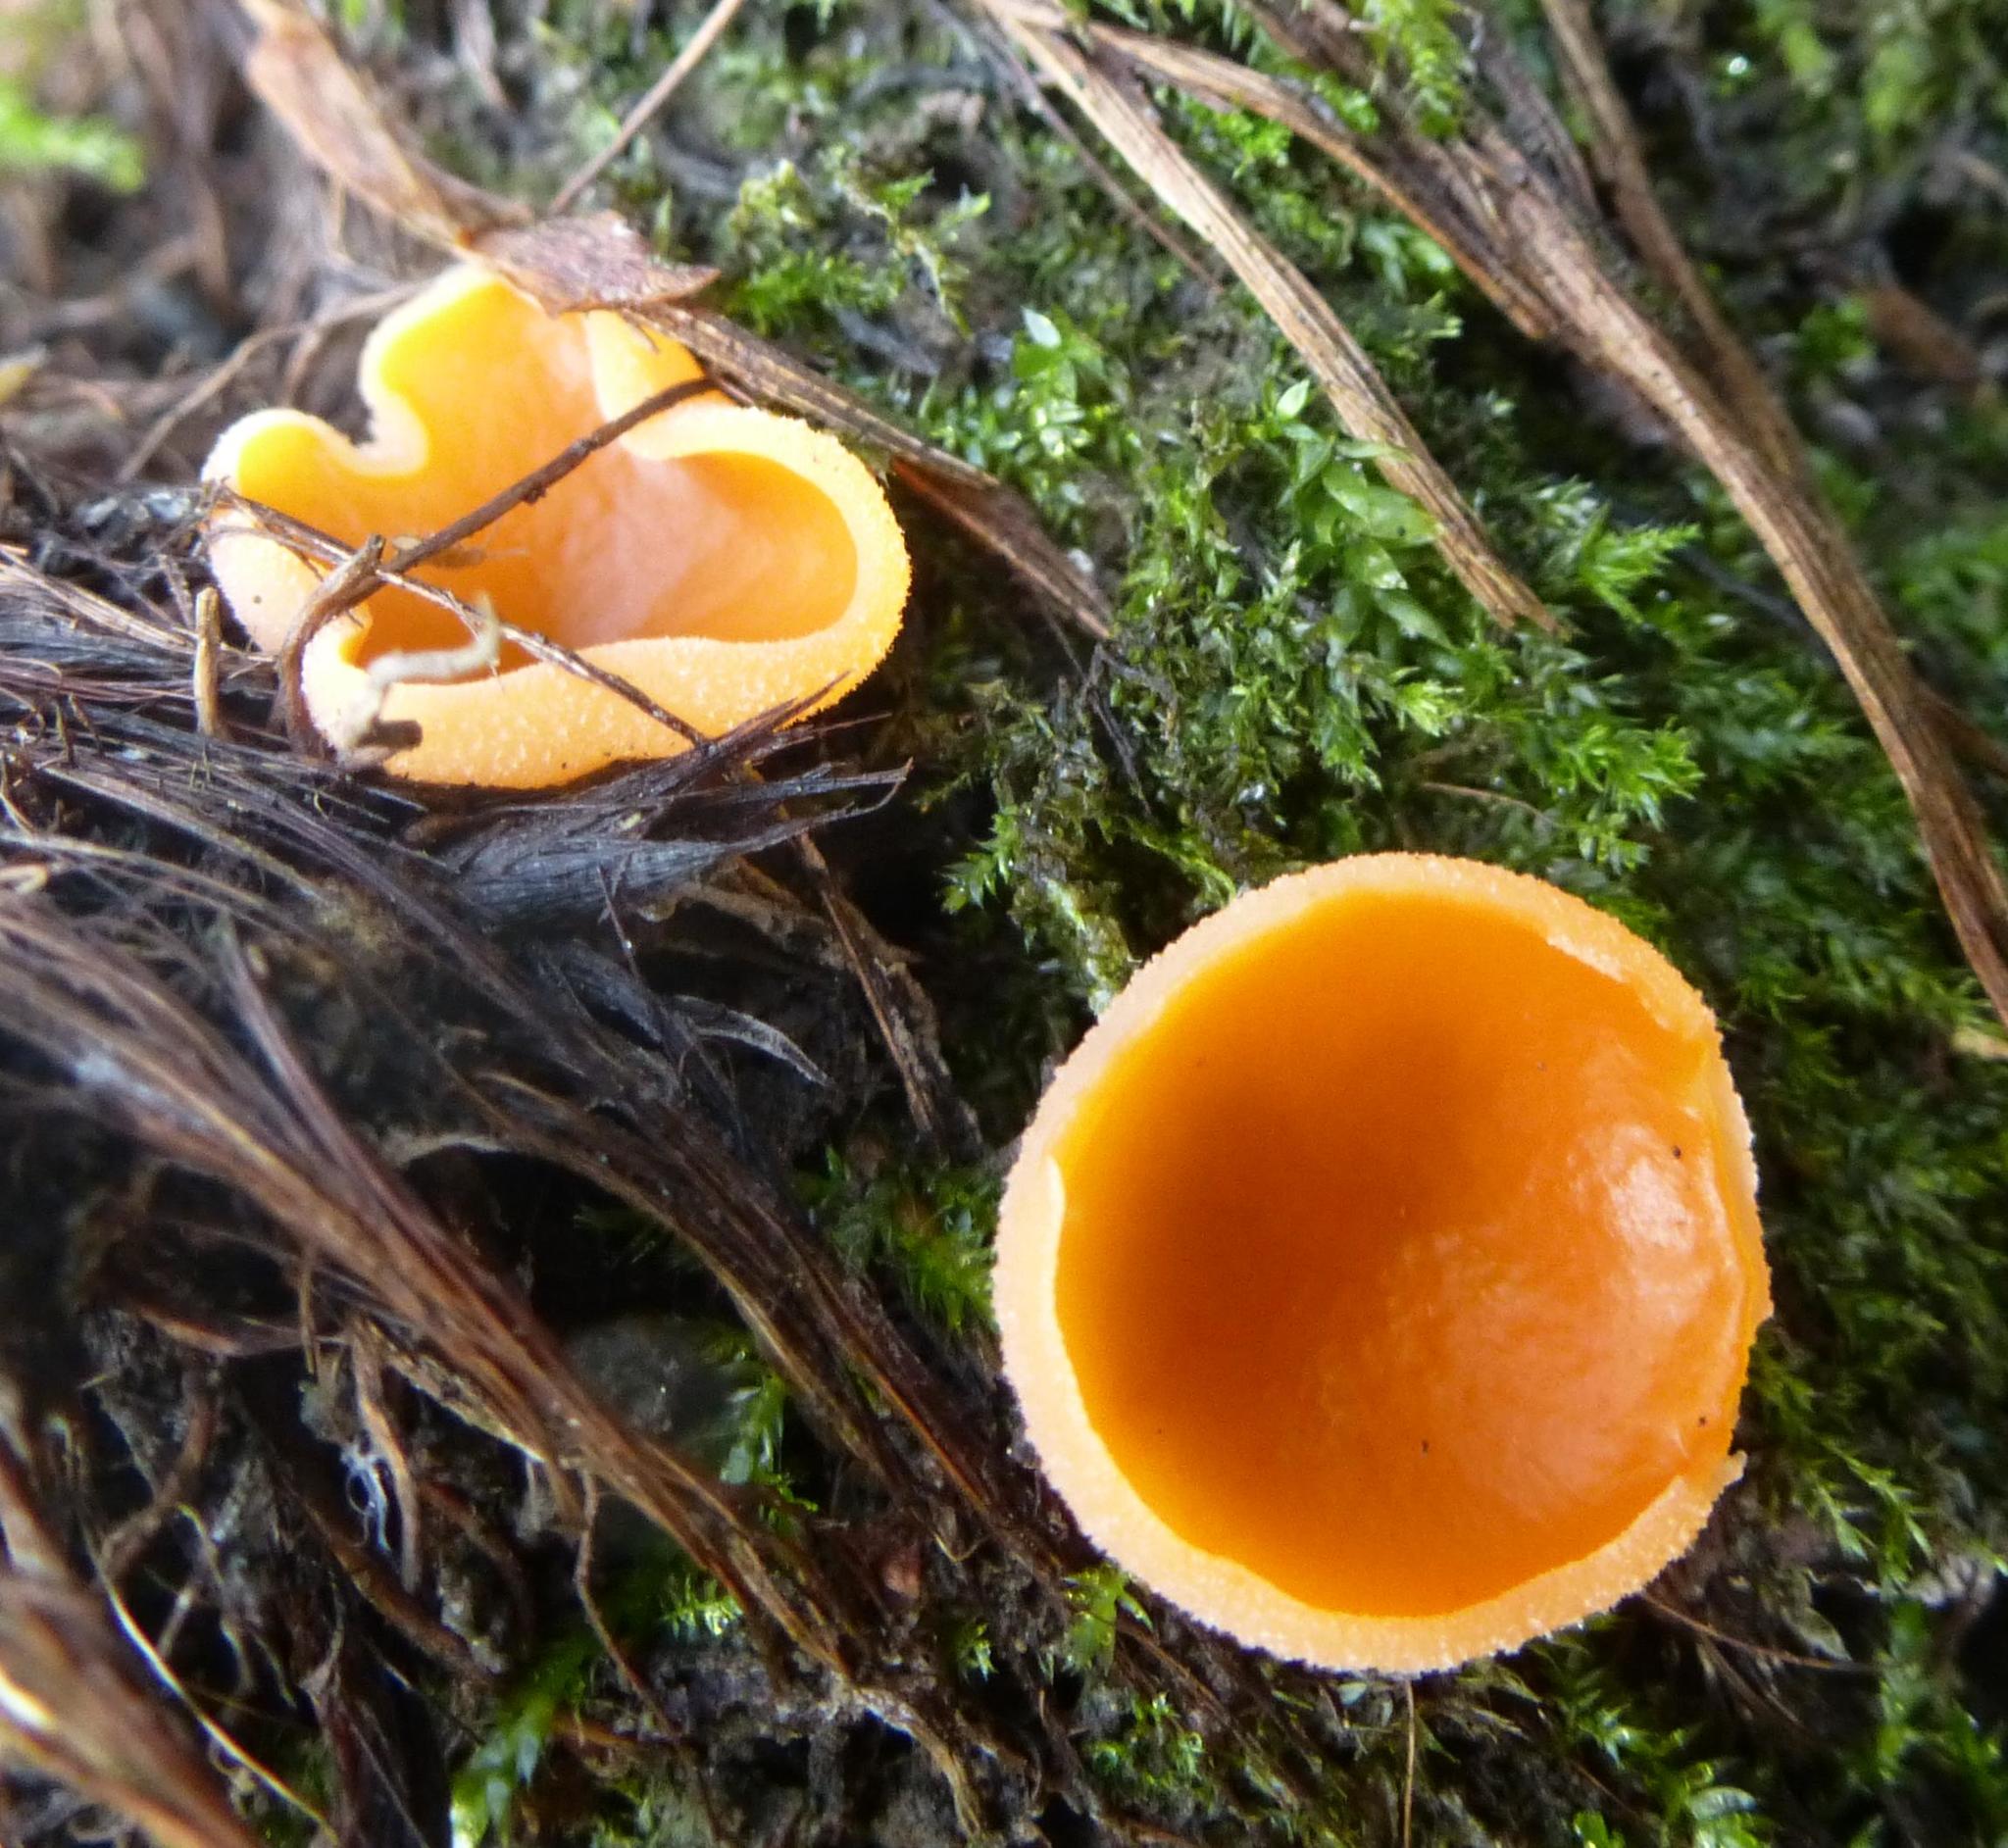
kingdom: Fungi
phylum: Ascomycota
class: Pezizomycetes
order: Pezizales
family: Pyronemataceae
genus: Aleuria
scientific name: Aleuria aurantia
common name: Orange peel fungus
